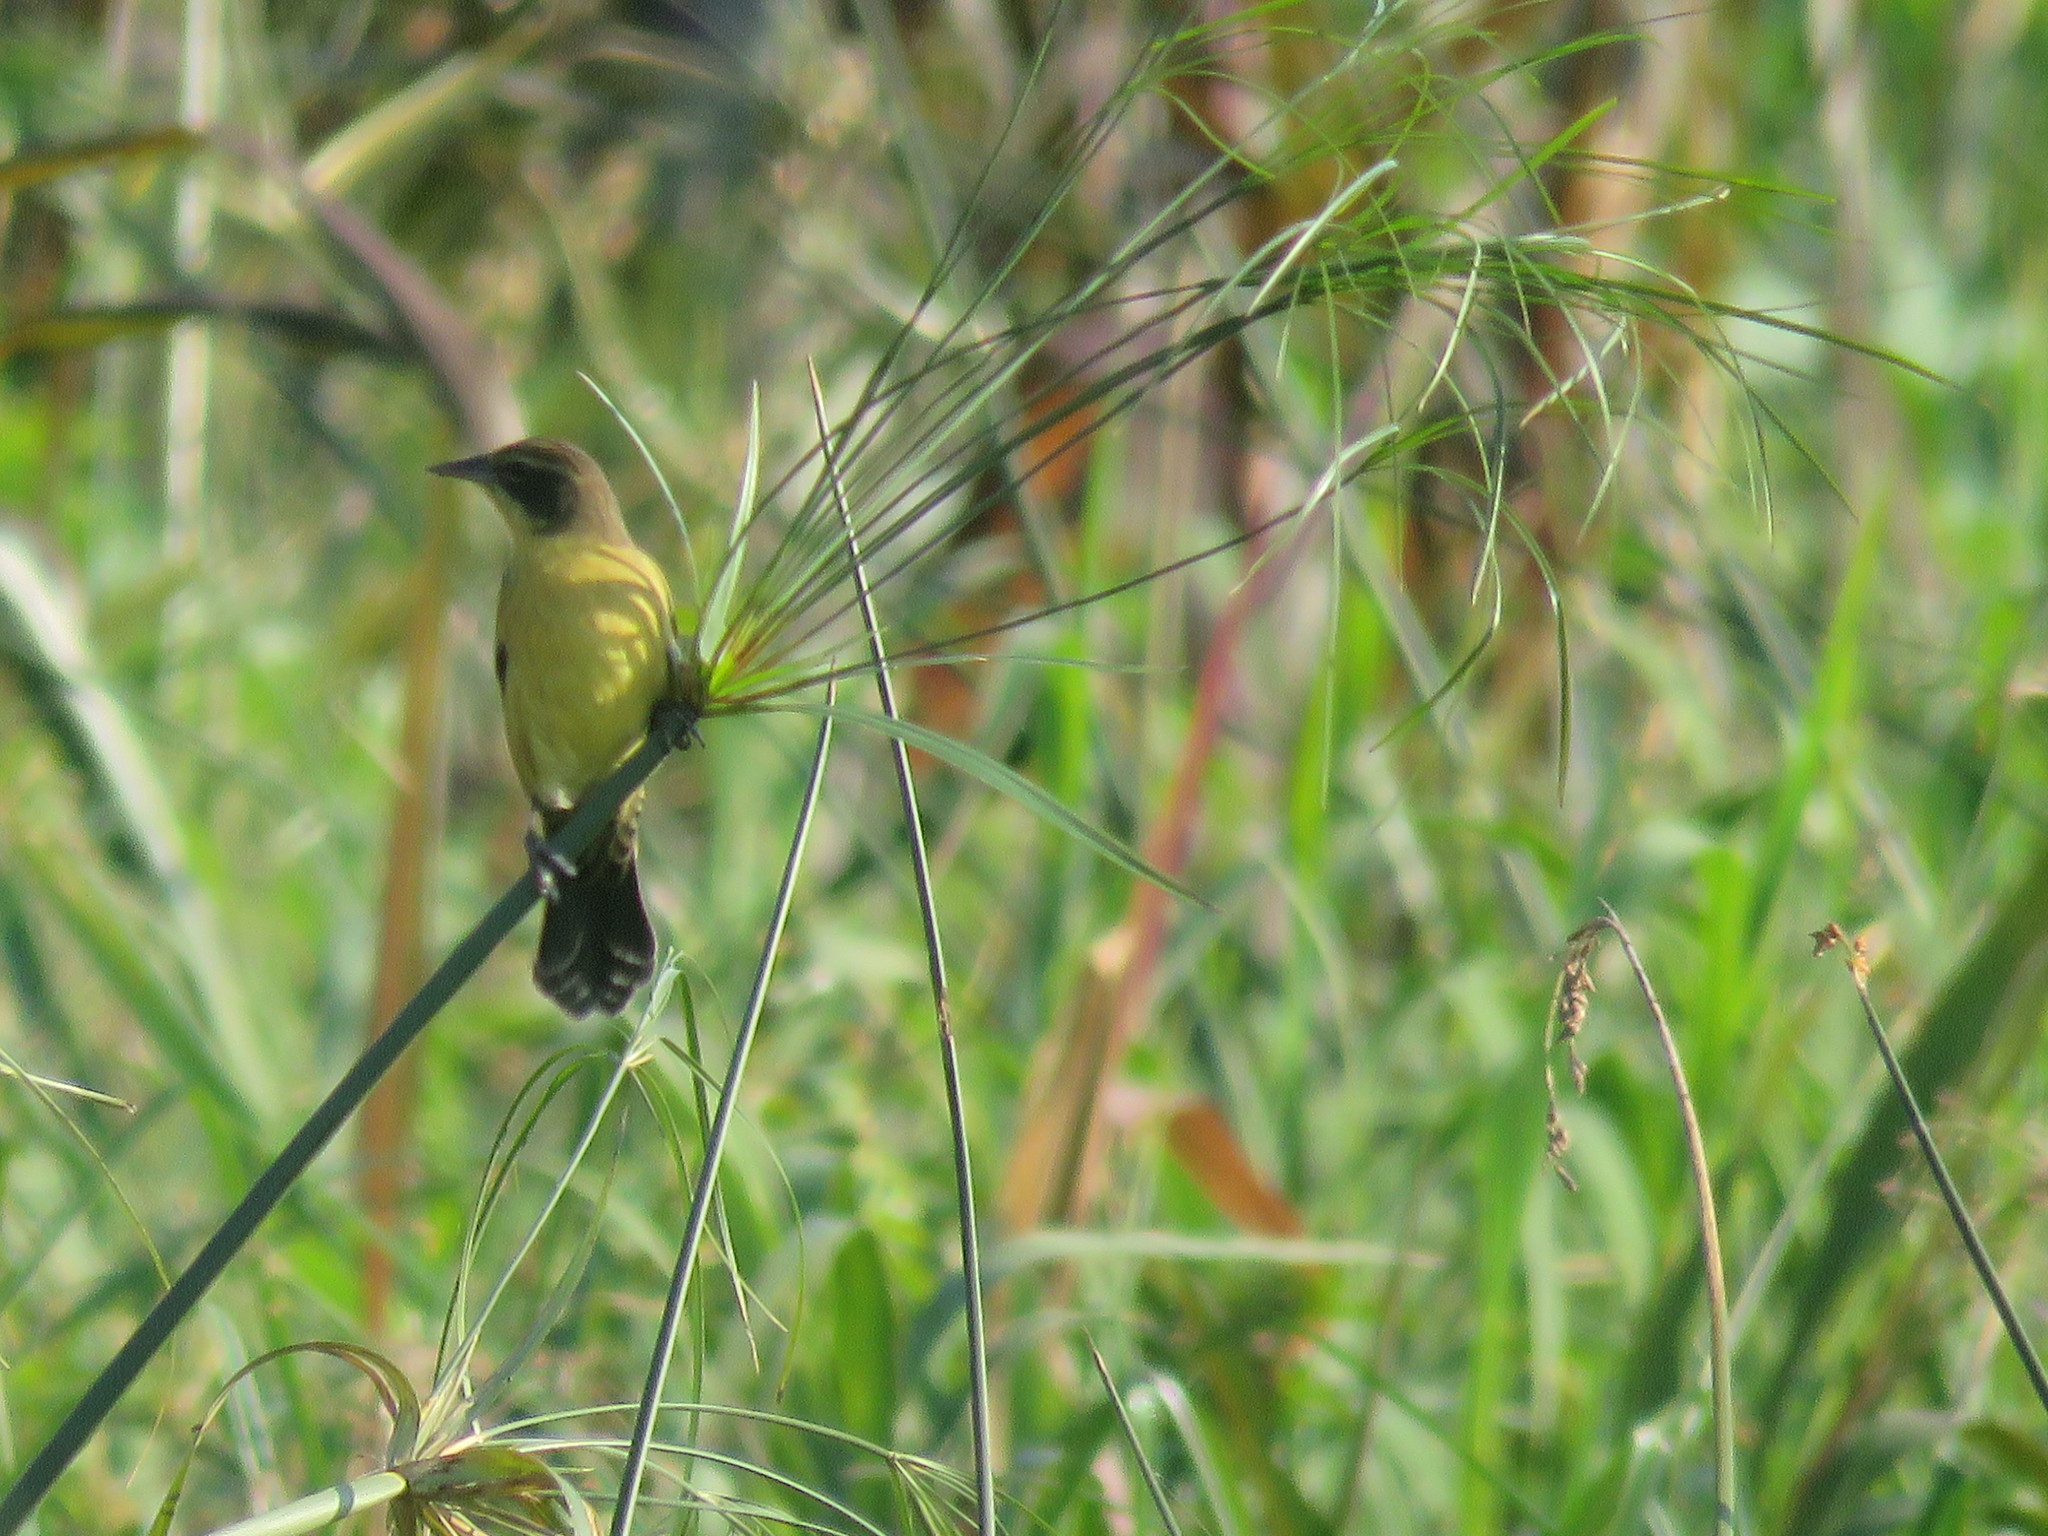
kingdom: Animalia
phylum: Chordata
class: Aves
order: Passeriformes
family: Icteridae
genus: Agelasticus
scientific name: Agelasticus cyanopus
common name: Unicolored blackbird
